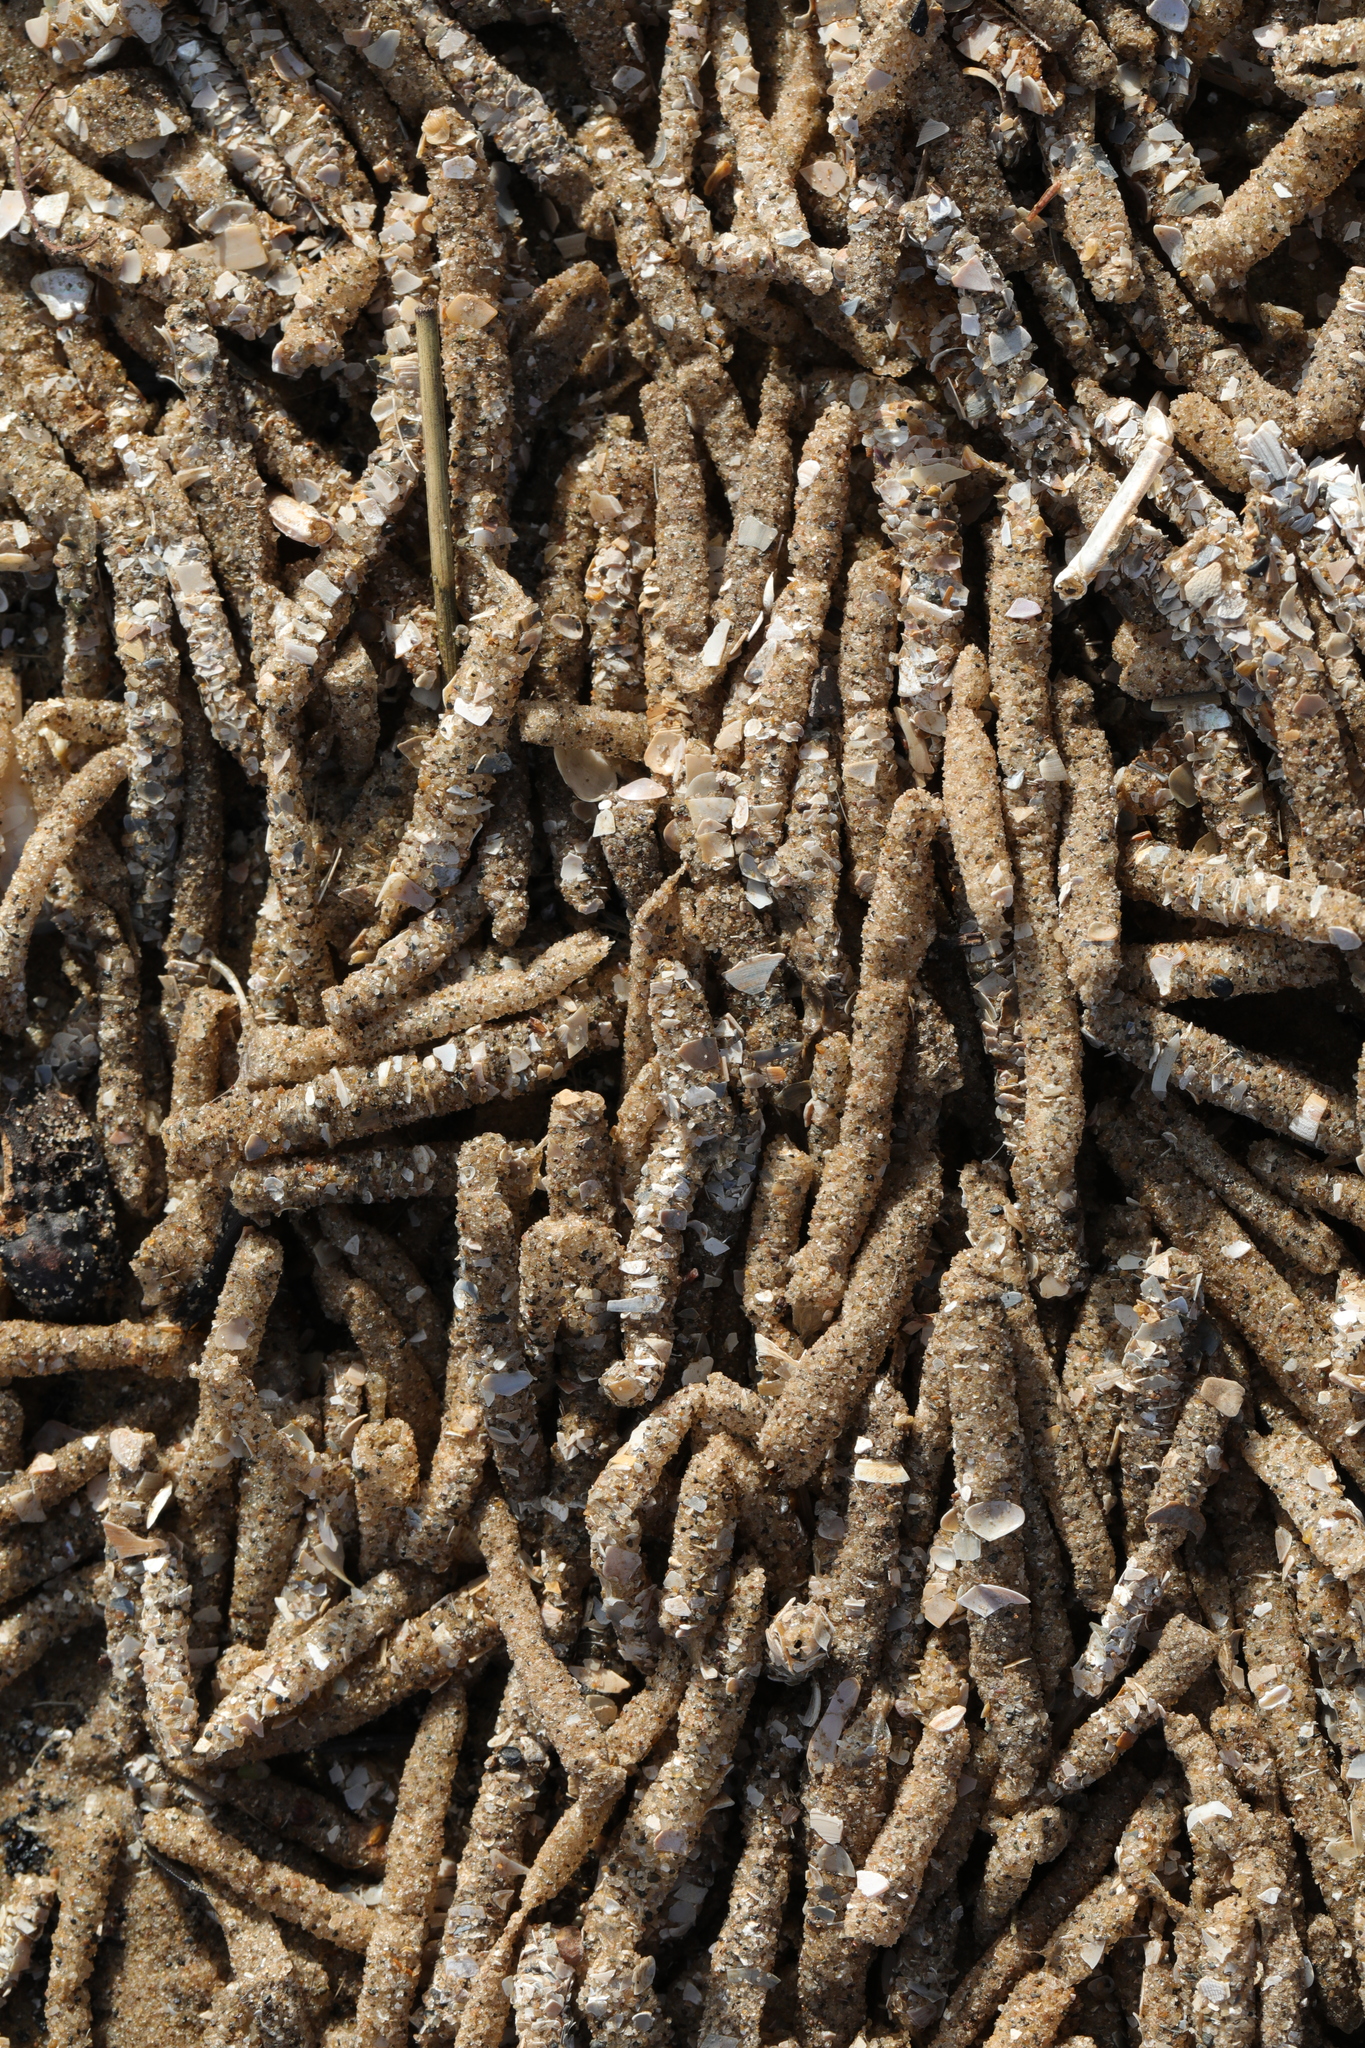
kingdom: Animalia
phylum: Annelida
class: Polychaeta
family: Terebellidae
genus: Lanice
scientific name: Lanice conchilega
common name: Sand mason
